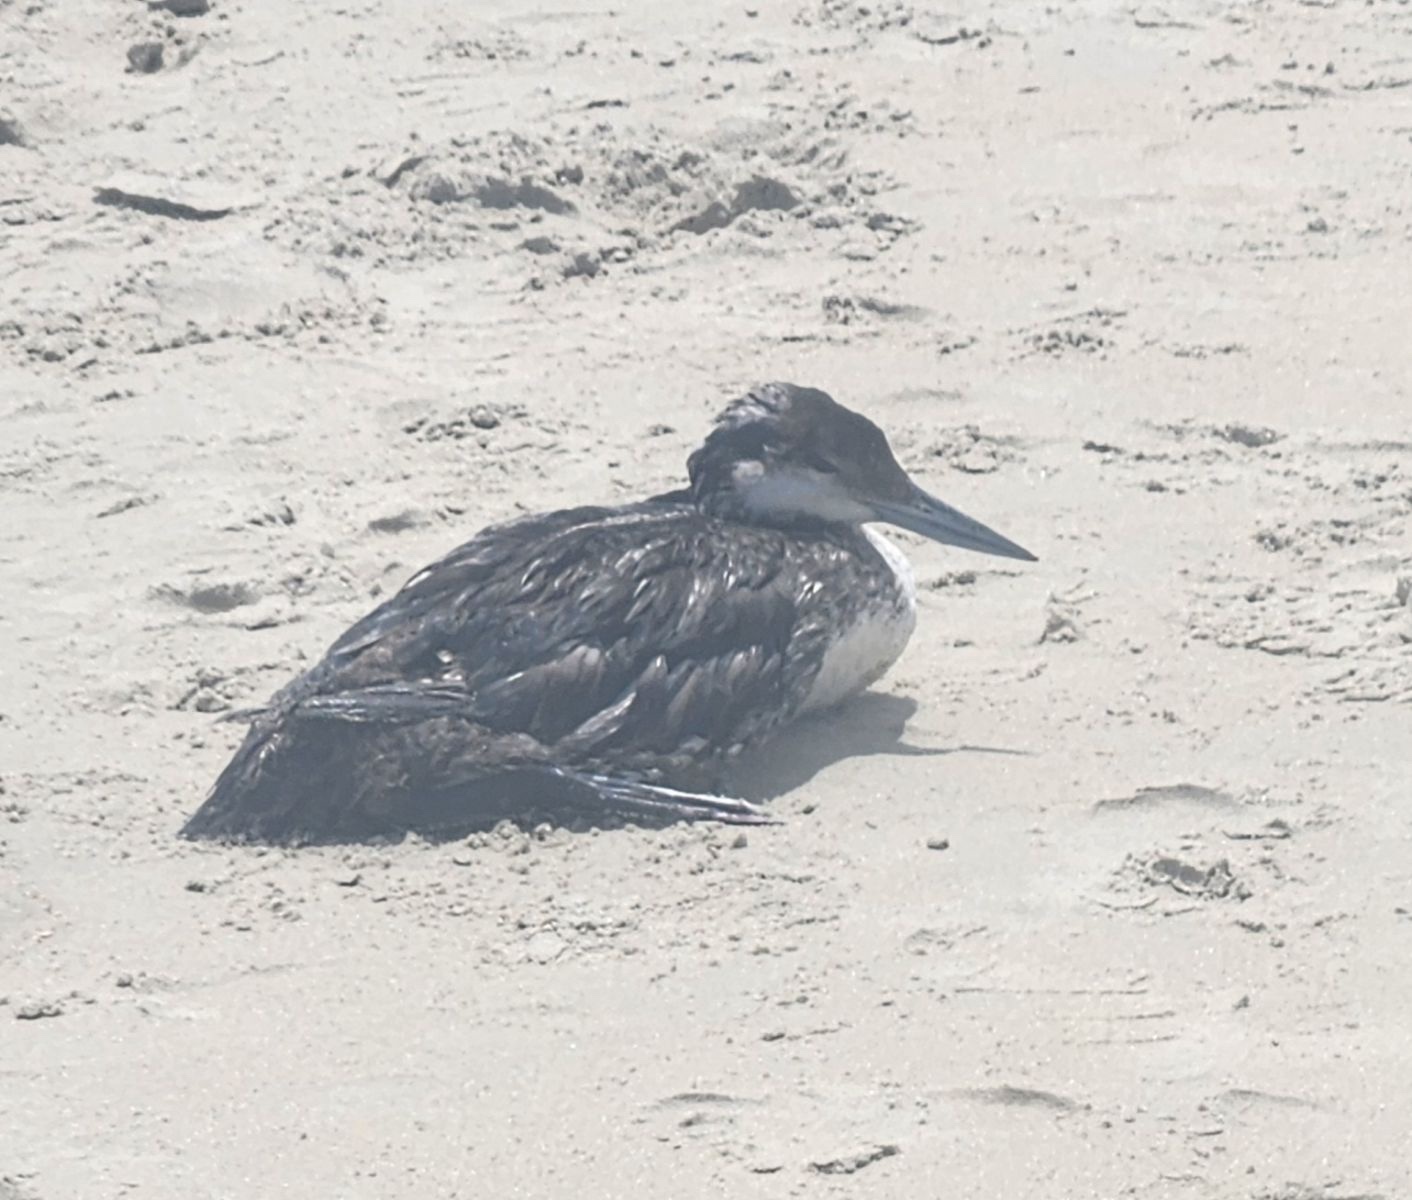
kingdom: Animalia
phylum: Chordata
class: Aves
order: Gaviiformes
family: Gaviidae
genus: Gavia
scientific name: Gavia immer
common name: Common loon
